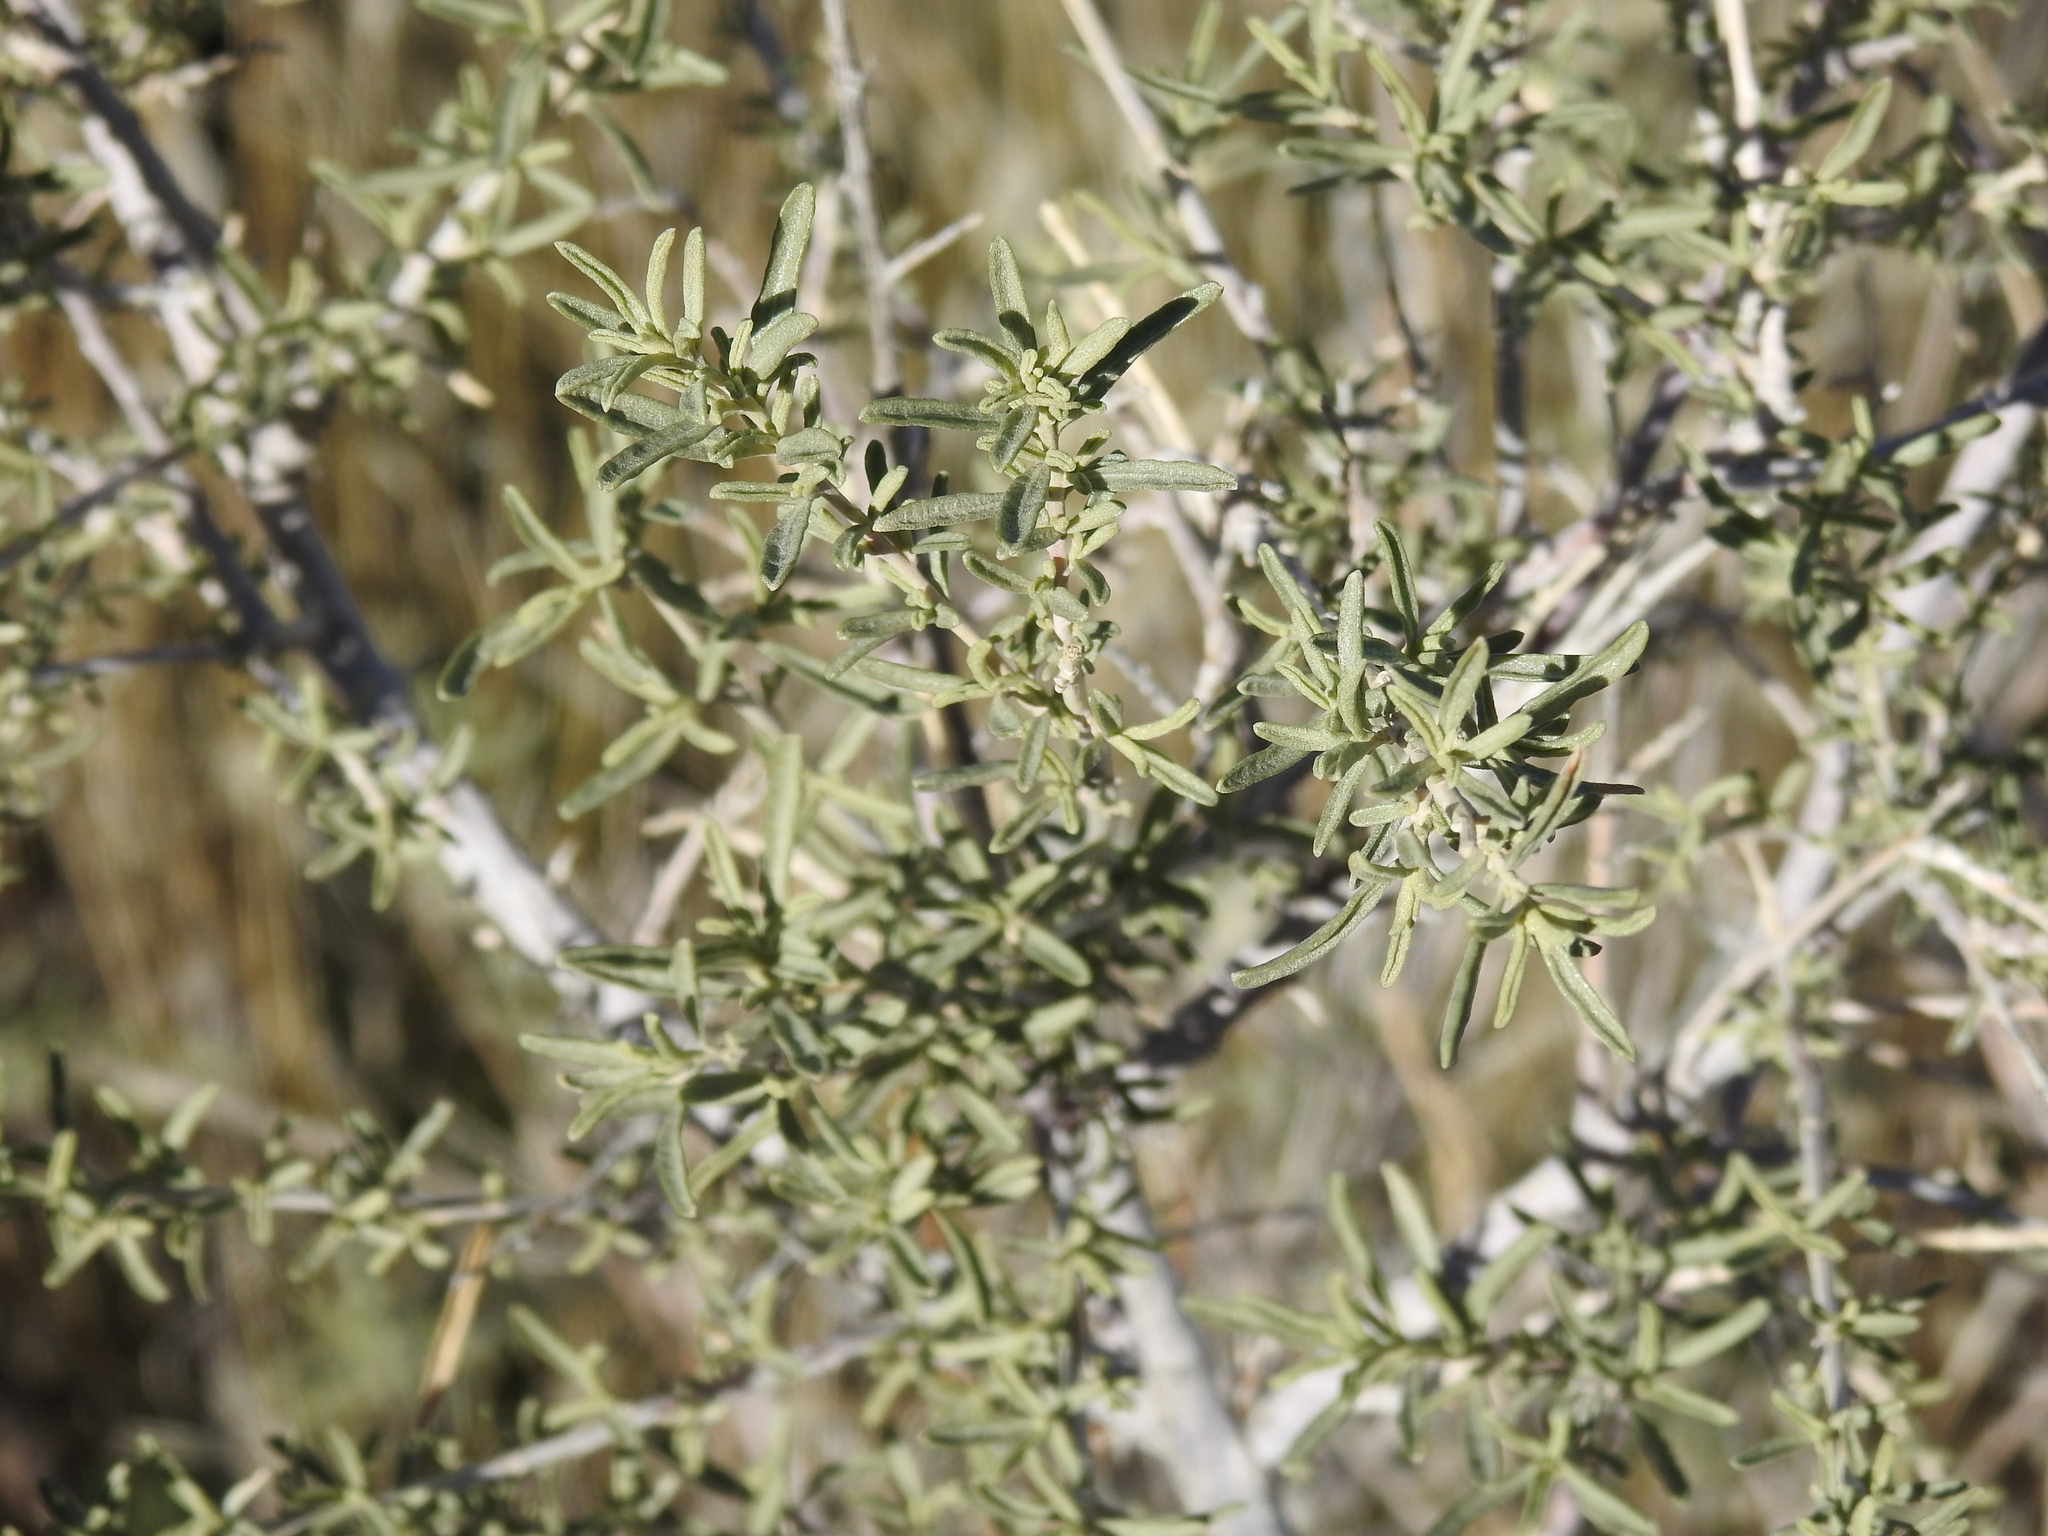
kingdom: Plantae
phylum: Tracheophyta
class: Magnoliopsida
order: Caryophyllales
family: Amaranthaceae
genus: Atriplex
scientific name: Atriplex canescens
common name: Four-wing saltbush
